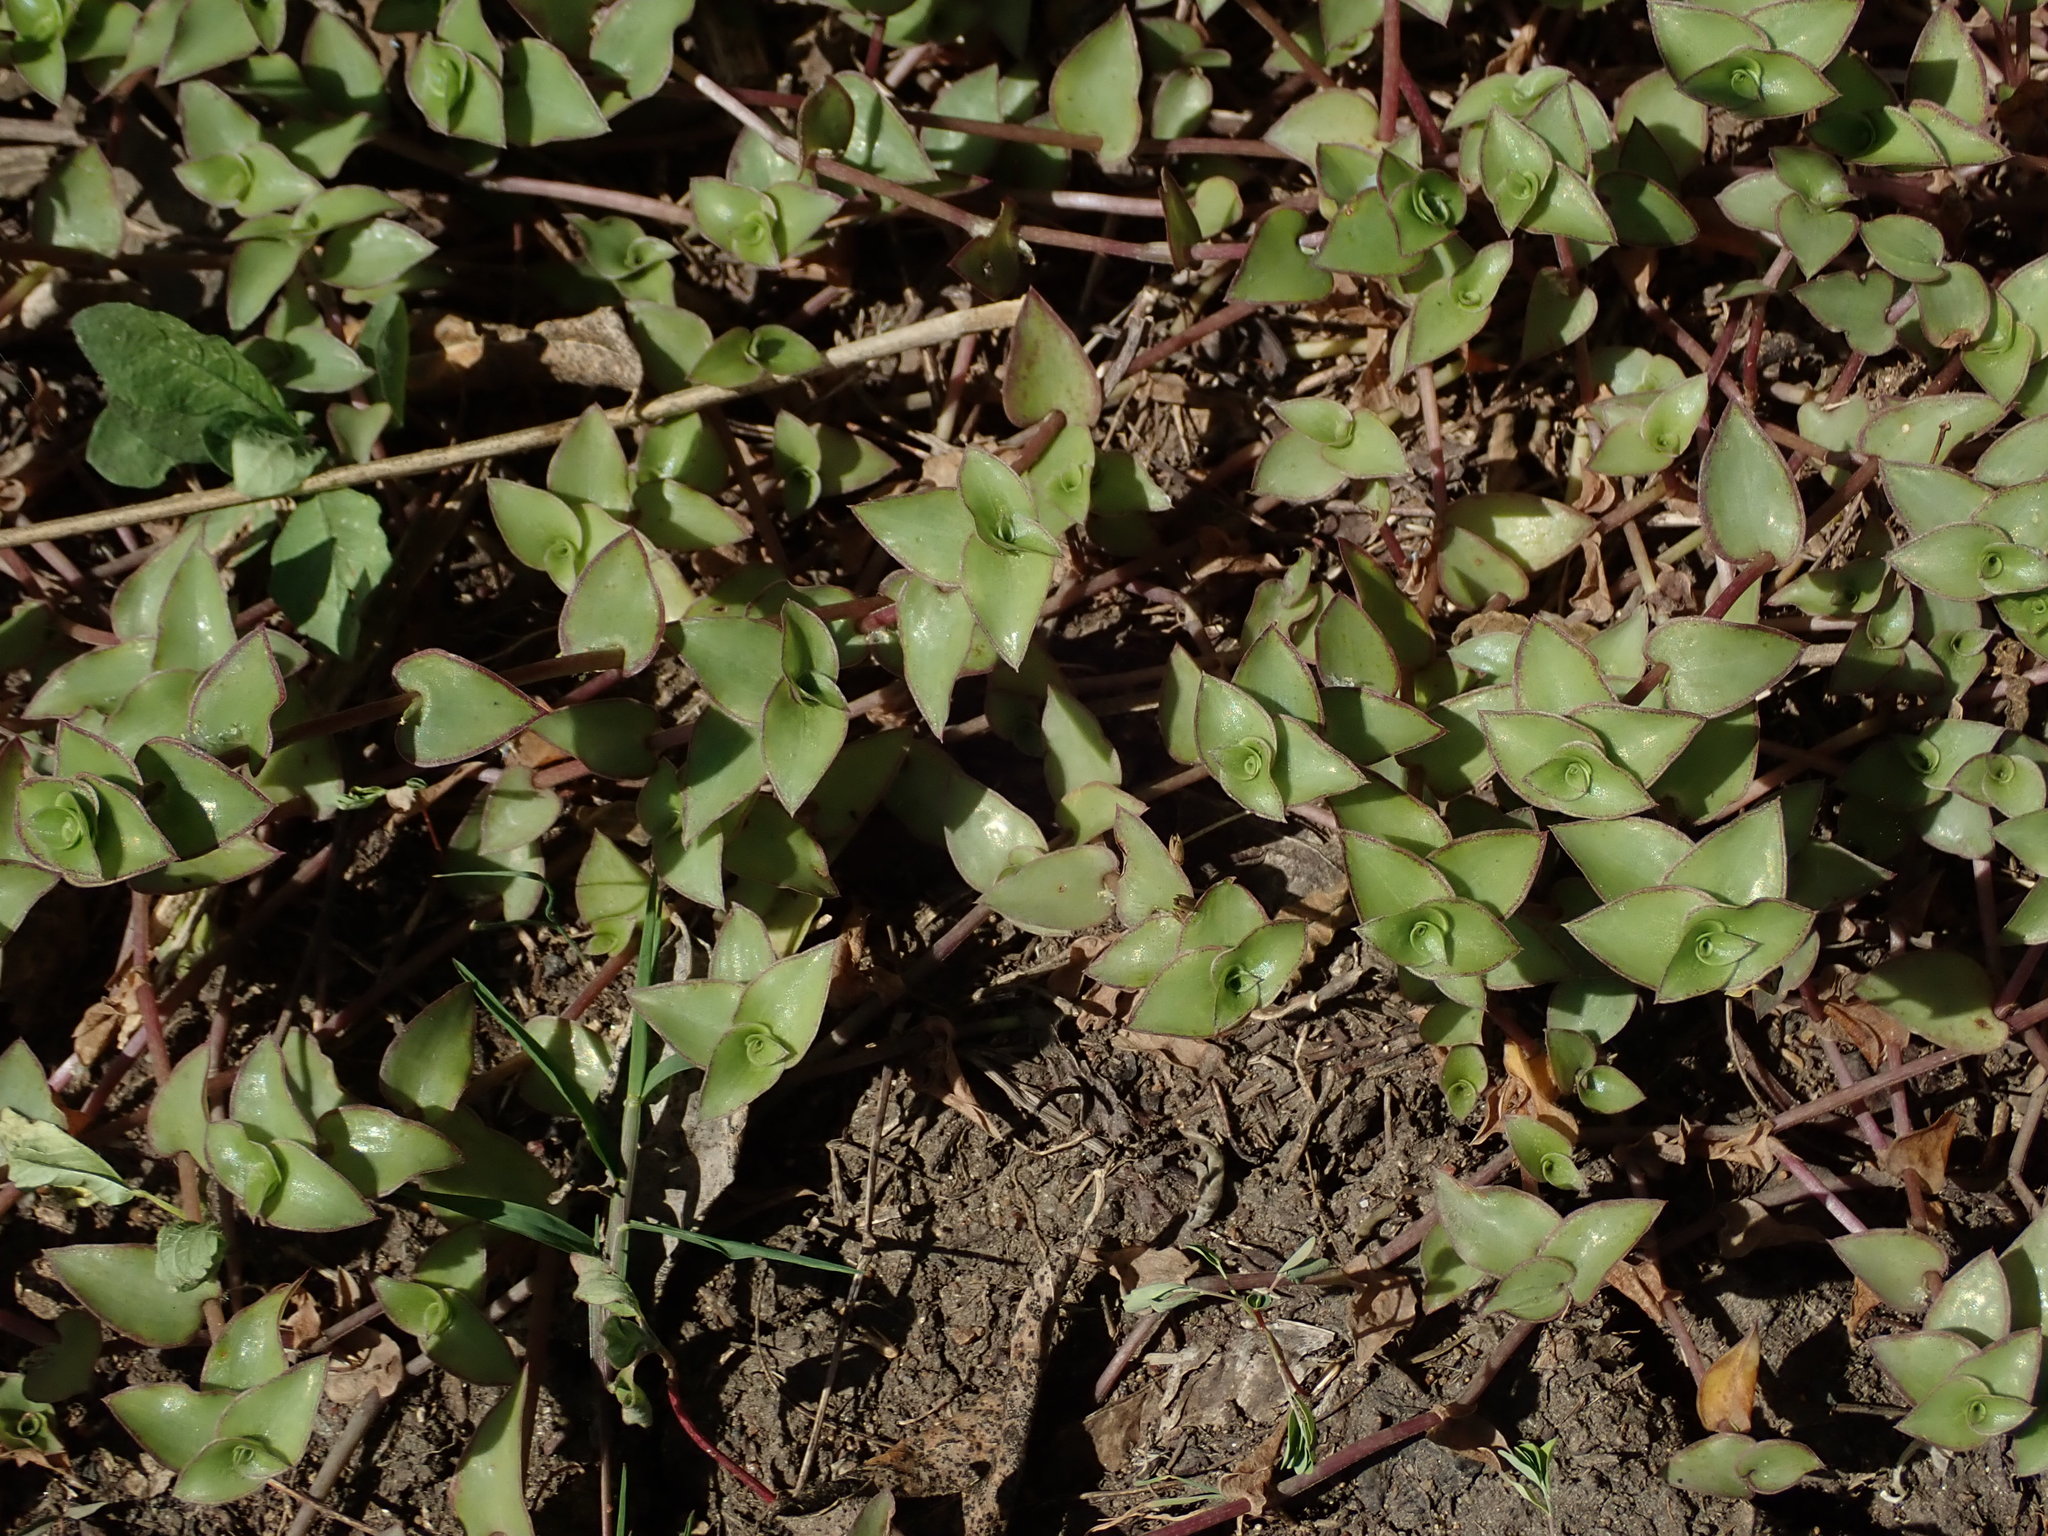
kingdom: Plantae
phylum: Tracheophyta
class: Liliopsida
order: Commelinales
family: Commelinaceae
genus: Callisia
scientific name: Callisia repens
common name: Creeping inchplant
